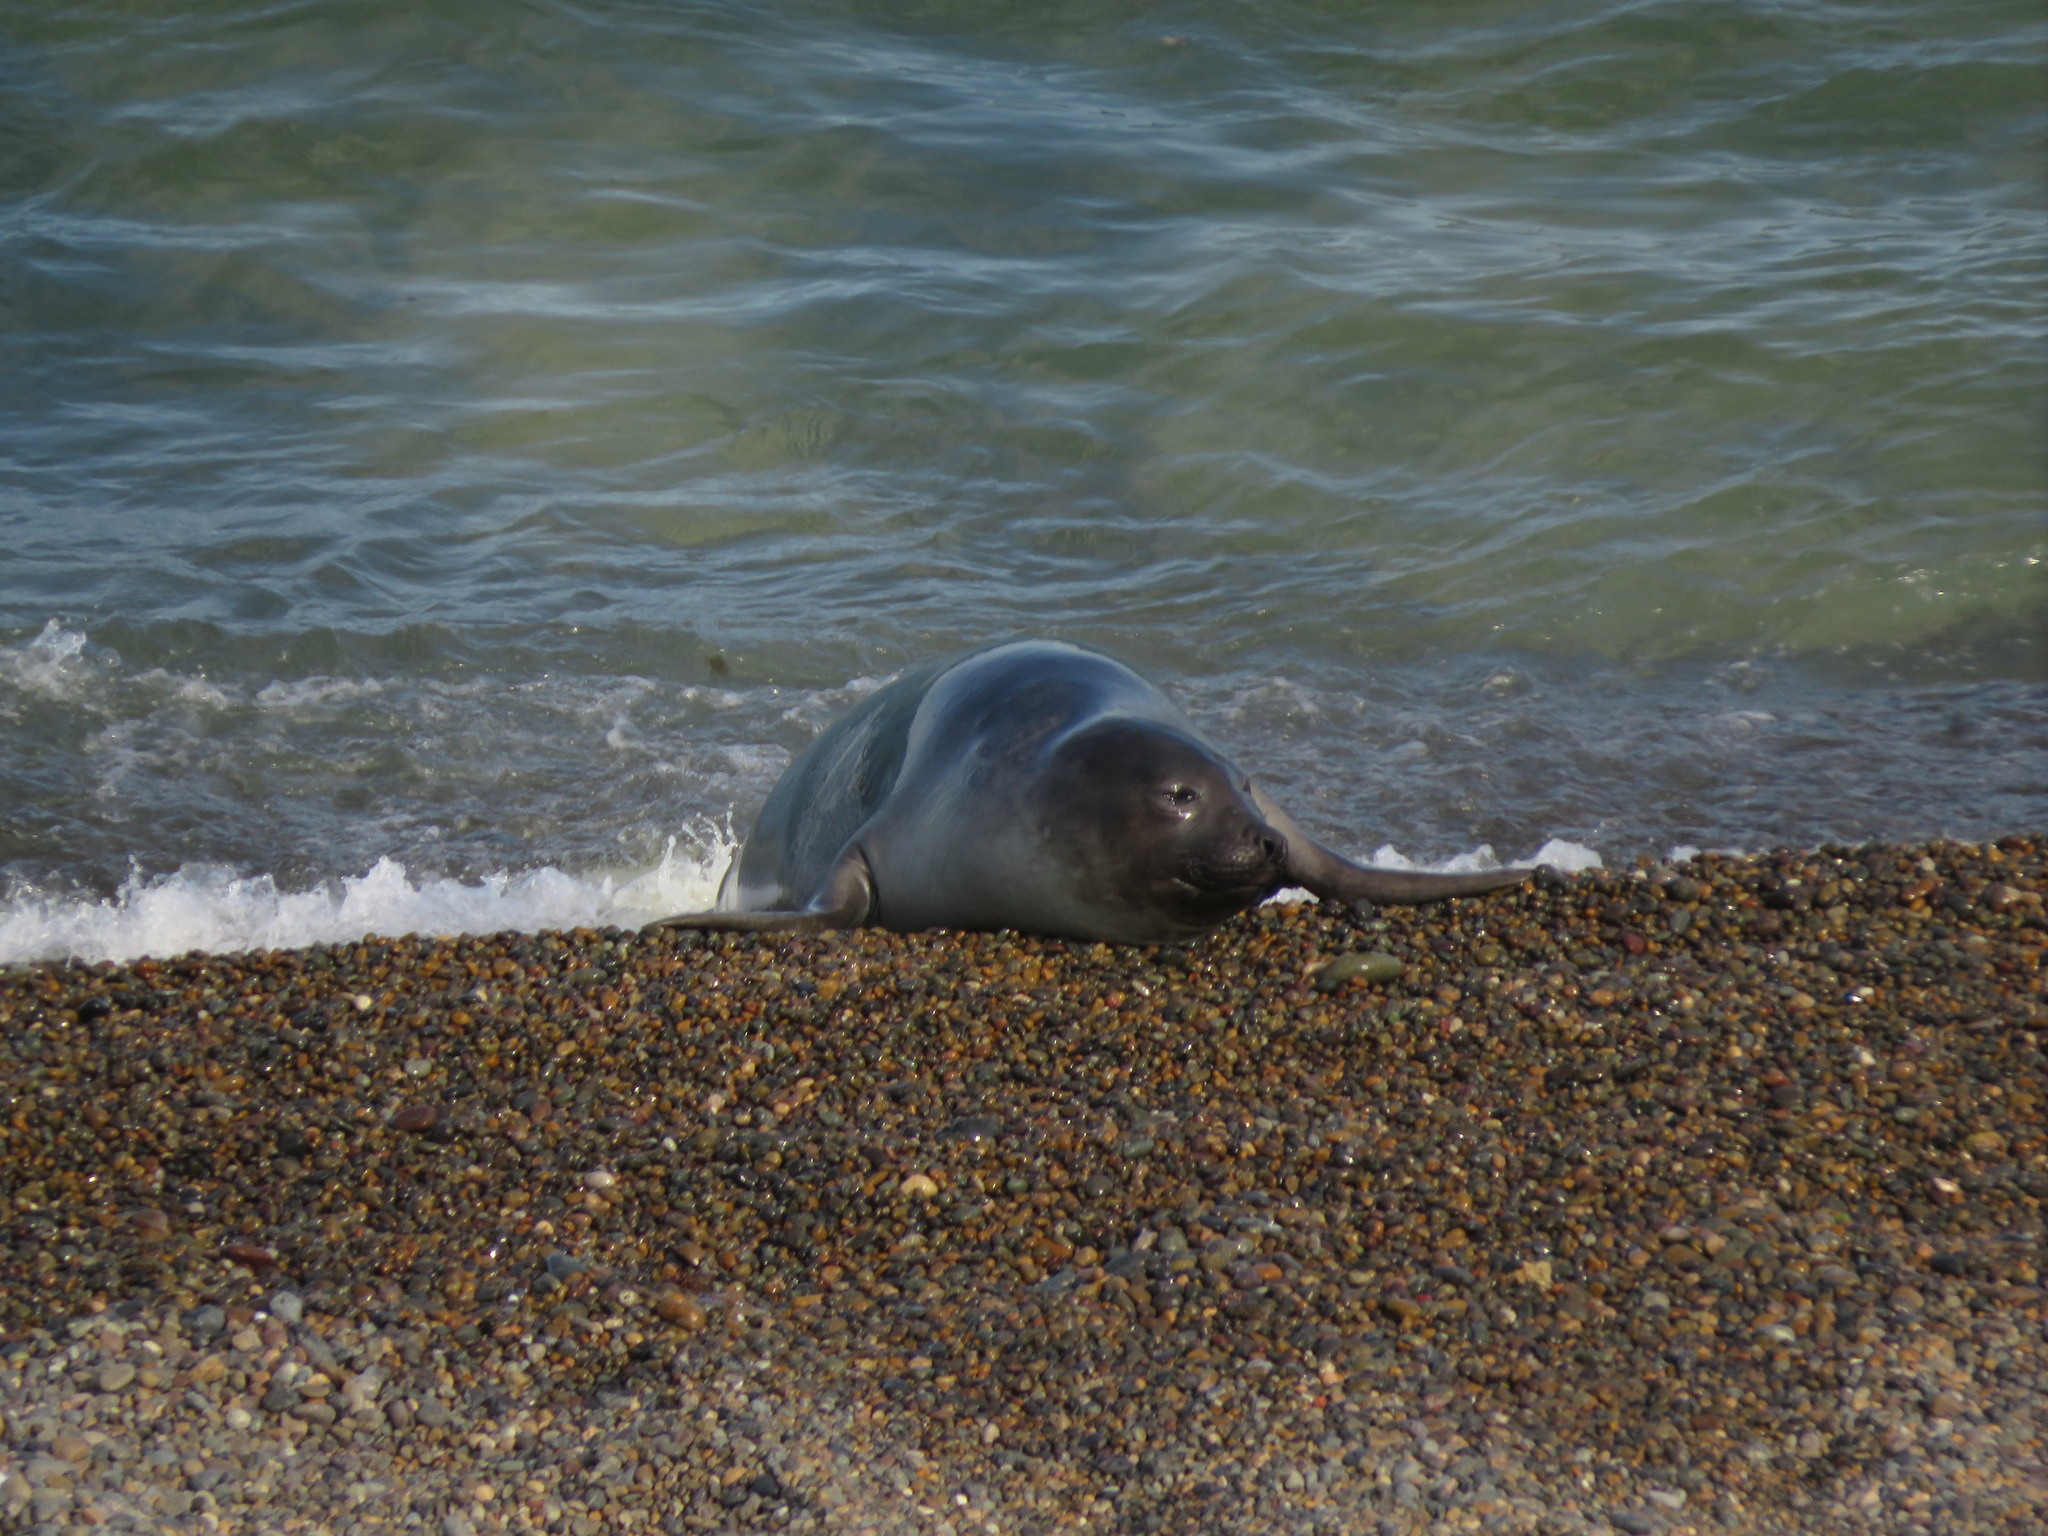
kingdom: Animalia
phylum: Chordata
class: Mammalia
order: Carnivora
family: Phocidae
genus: Mirounga
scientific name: Mirounga leonina
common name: Southern elephant seal
